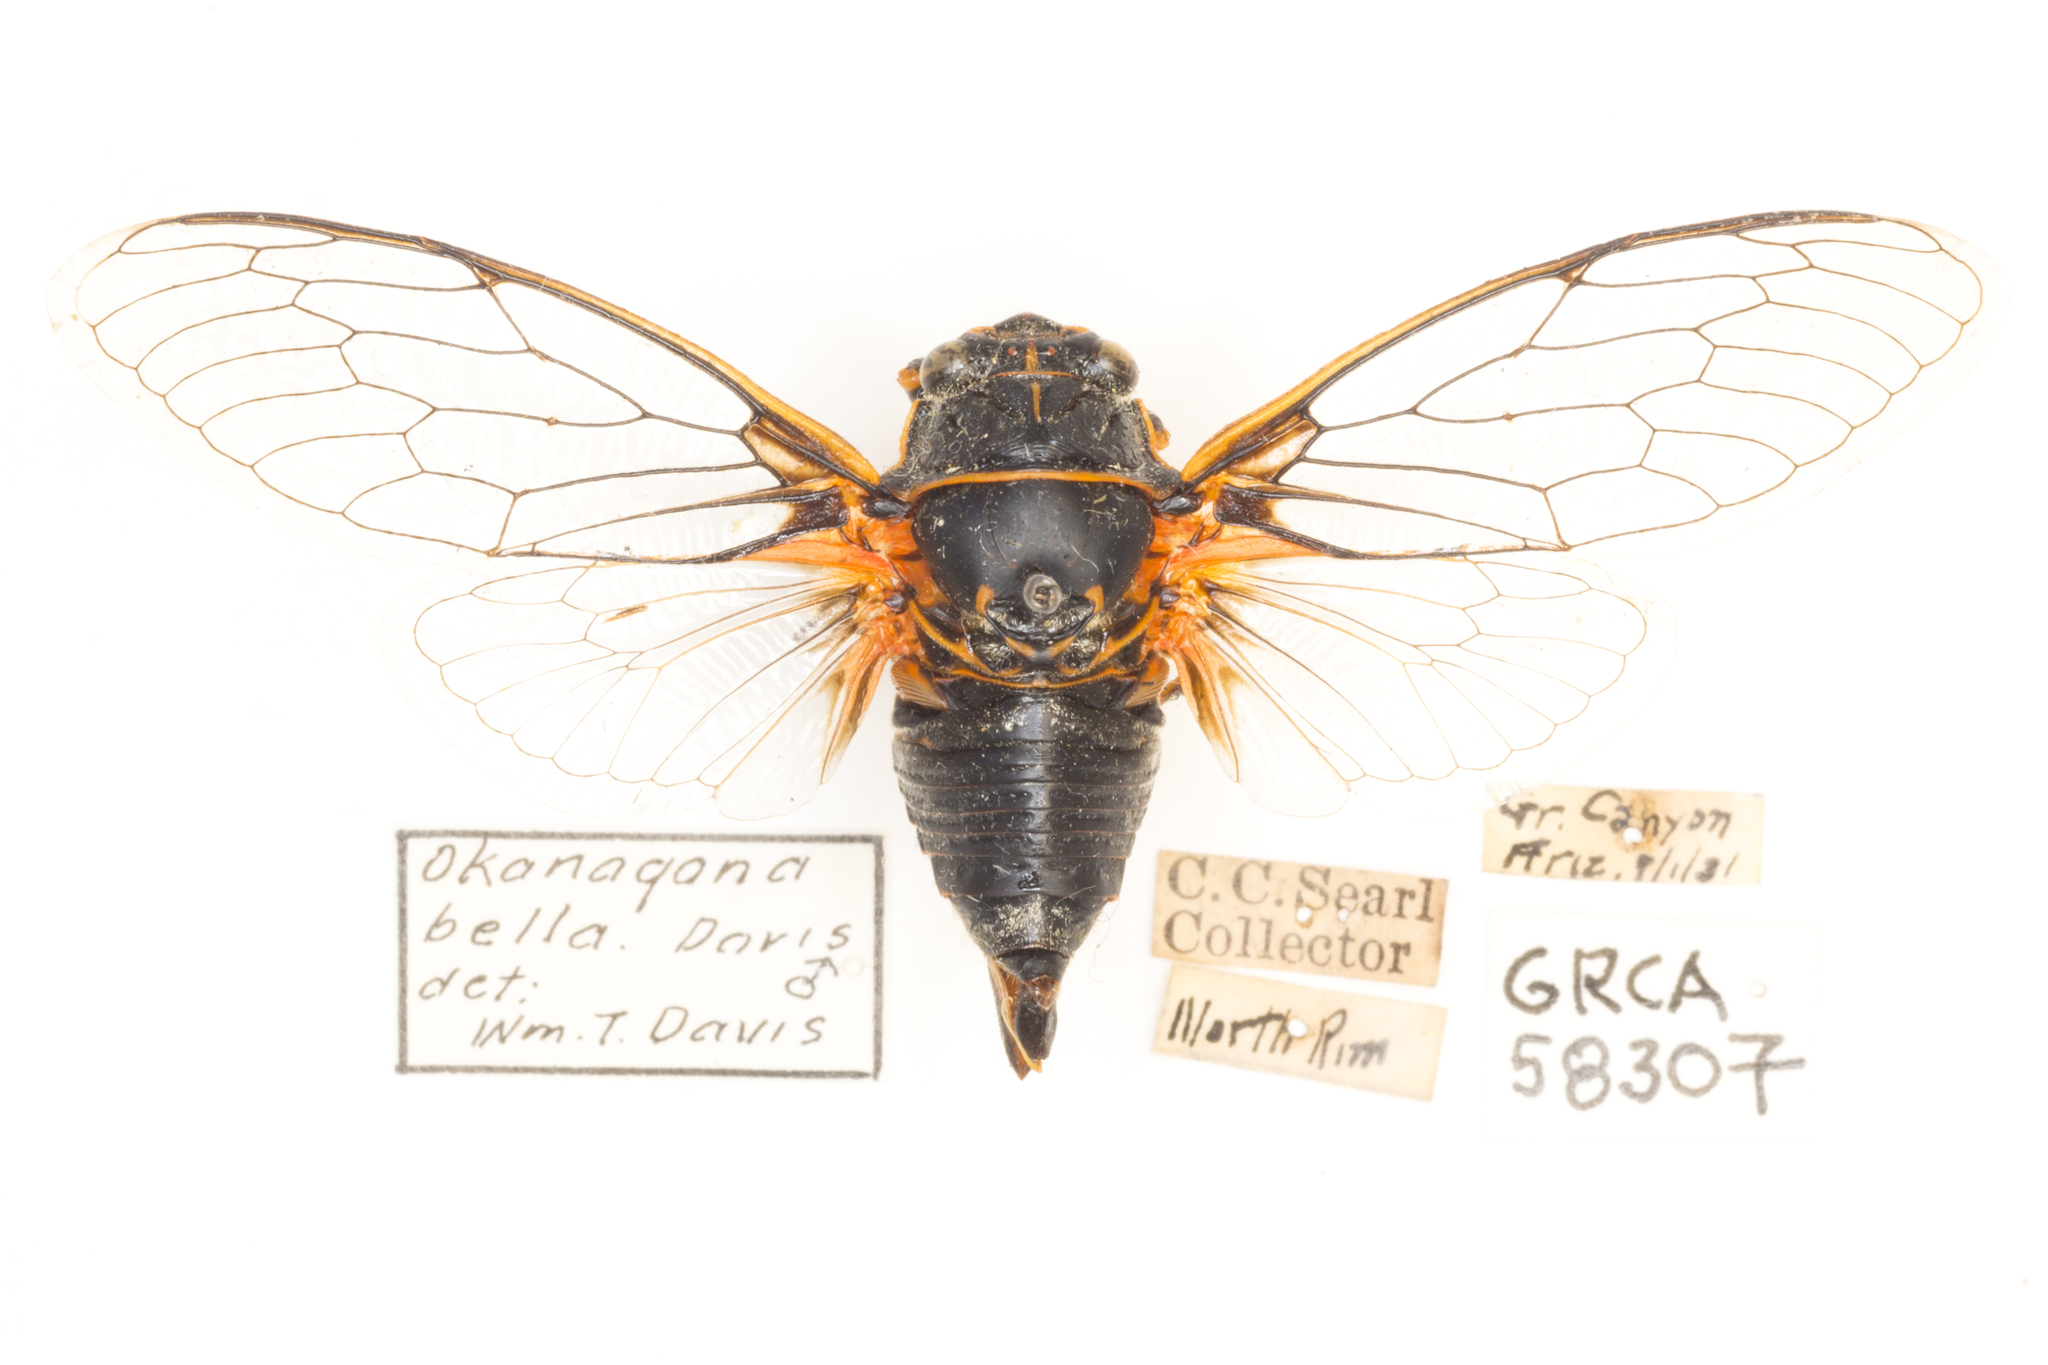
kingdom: Animalia
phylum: Arthropoda
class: Insecta
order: Hemiptera
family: Cicadidae
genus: Okanagana
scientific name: Okanagana bella
